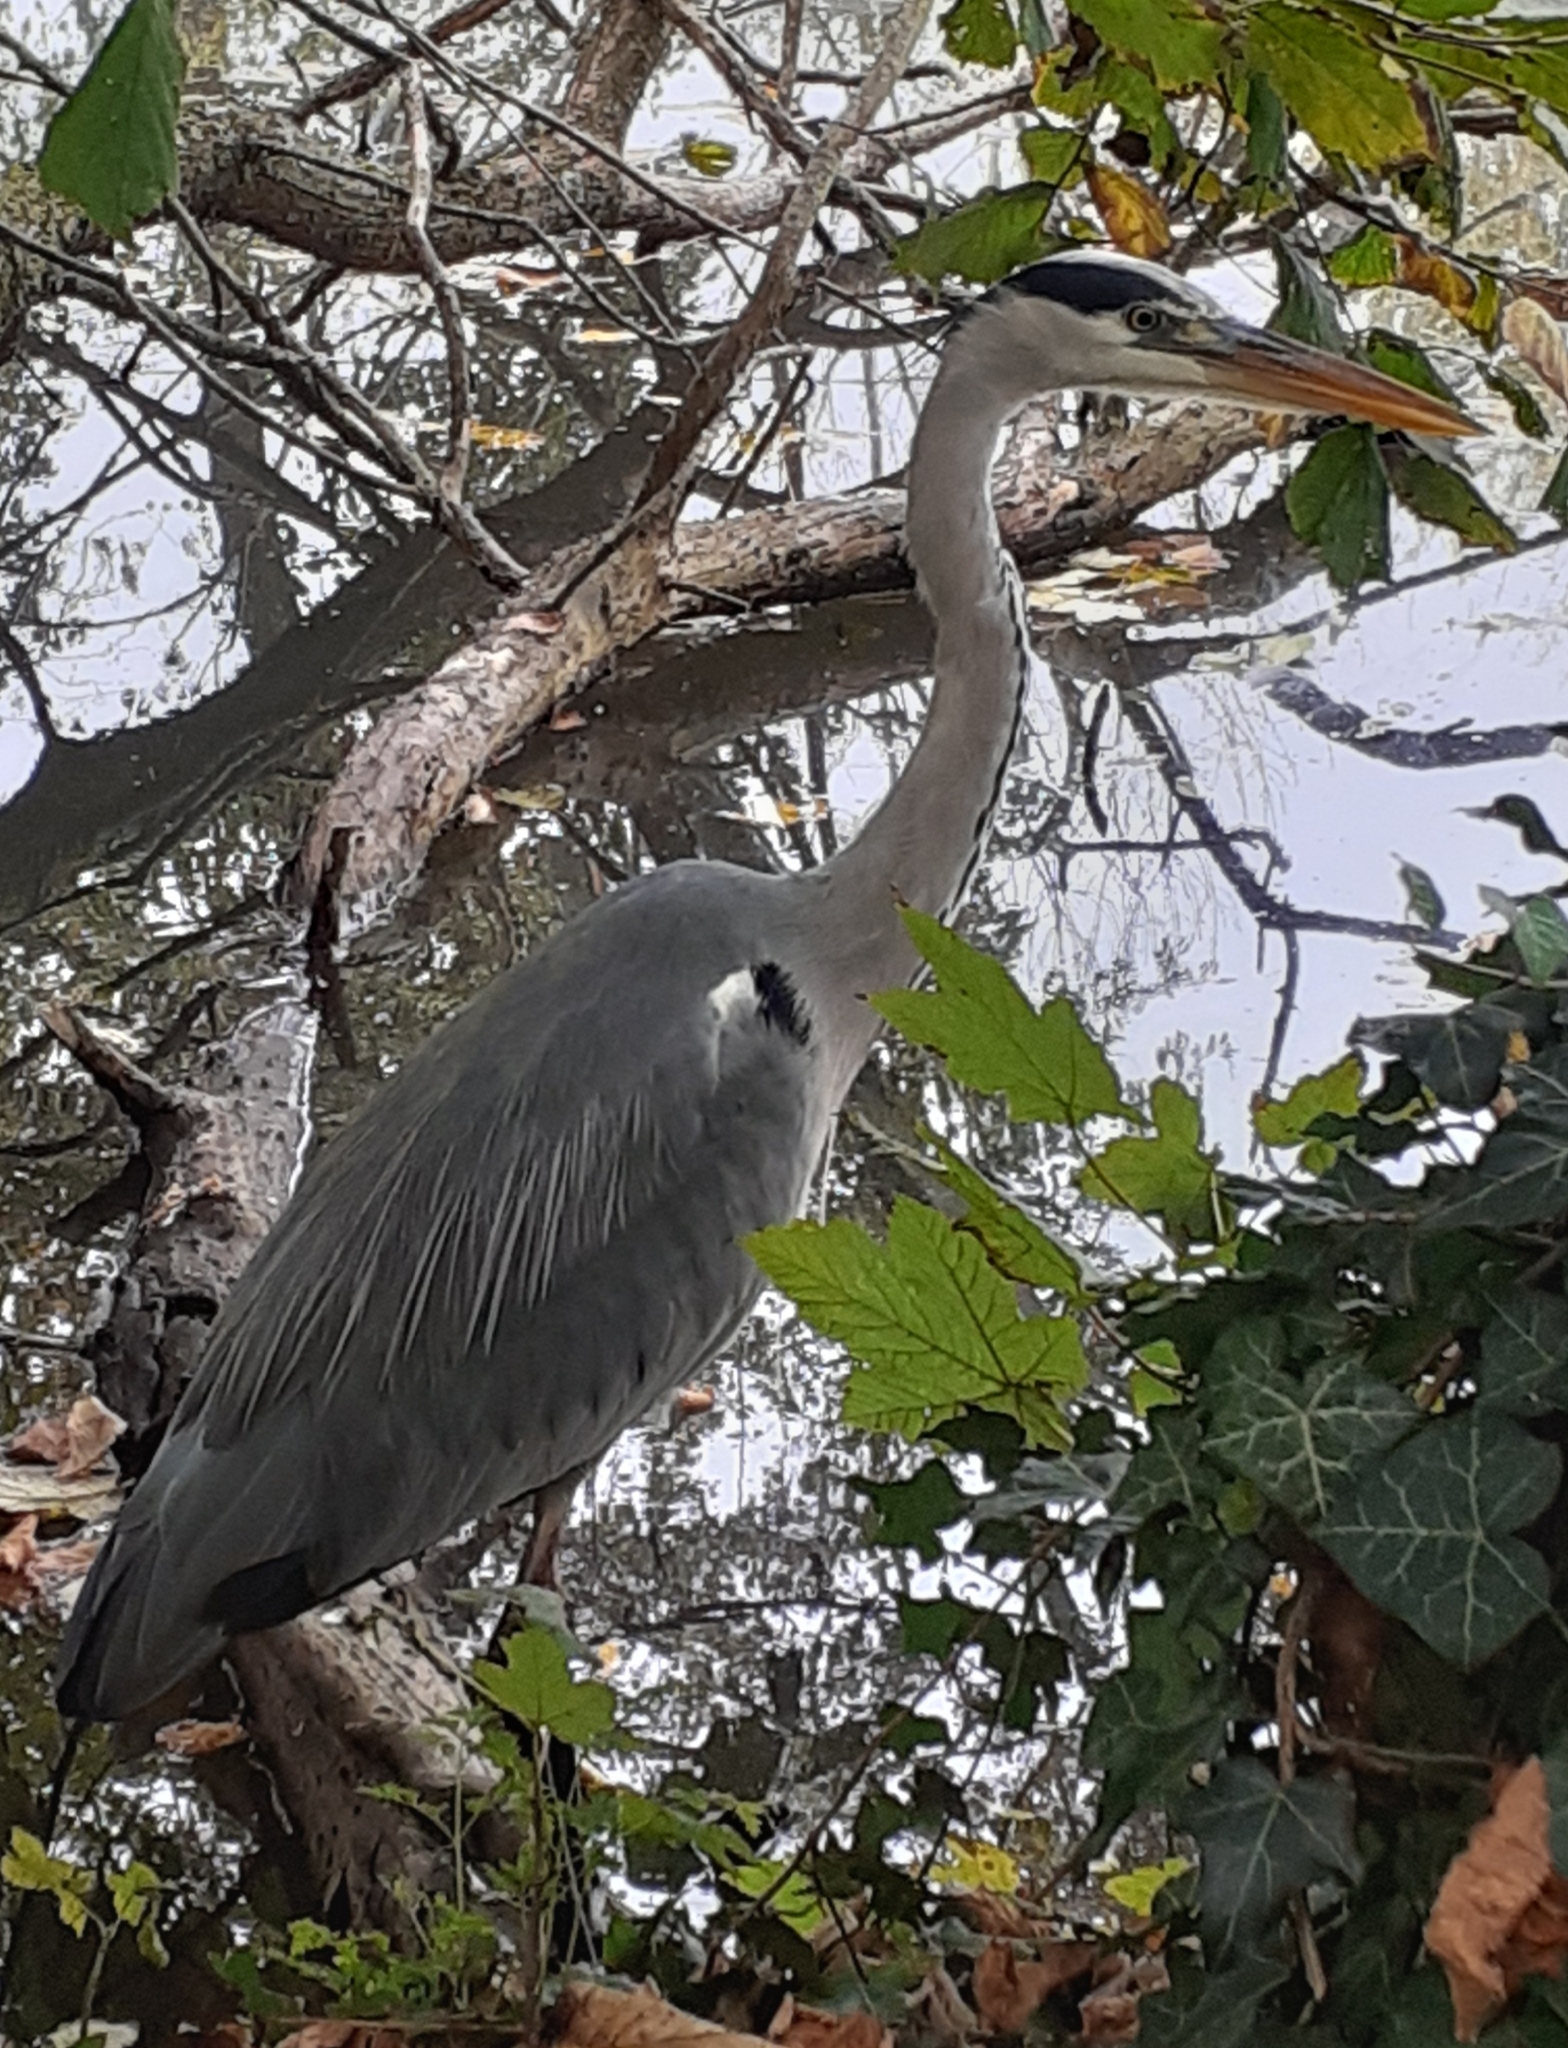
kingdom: Animalia
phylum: Chordata
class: Aves
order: Pelecaniformes
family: Ardeidae
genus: Ardea
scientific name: Ardea cinerea
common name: Grey heron
